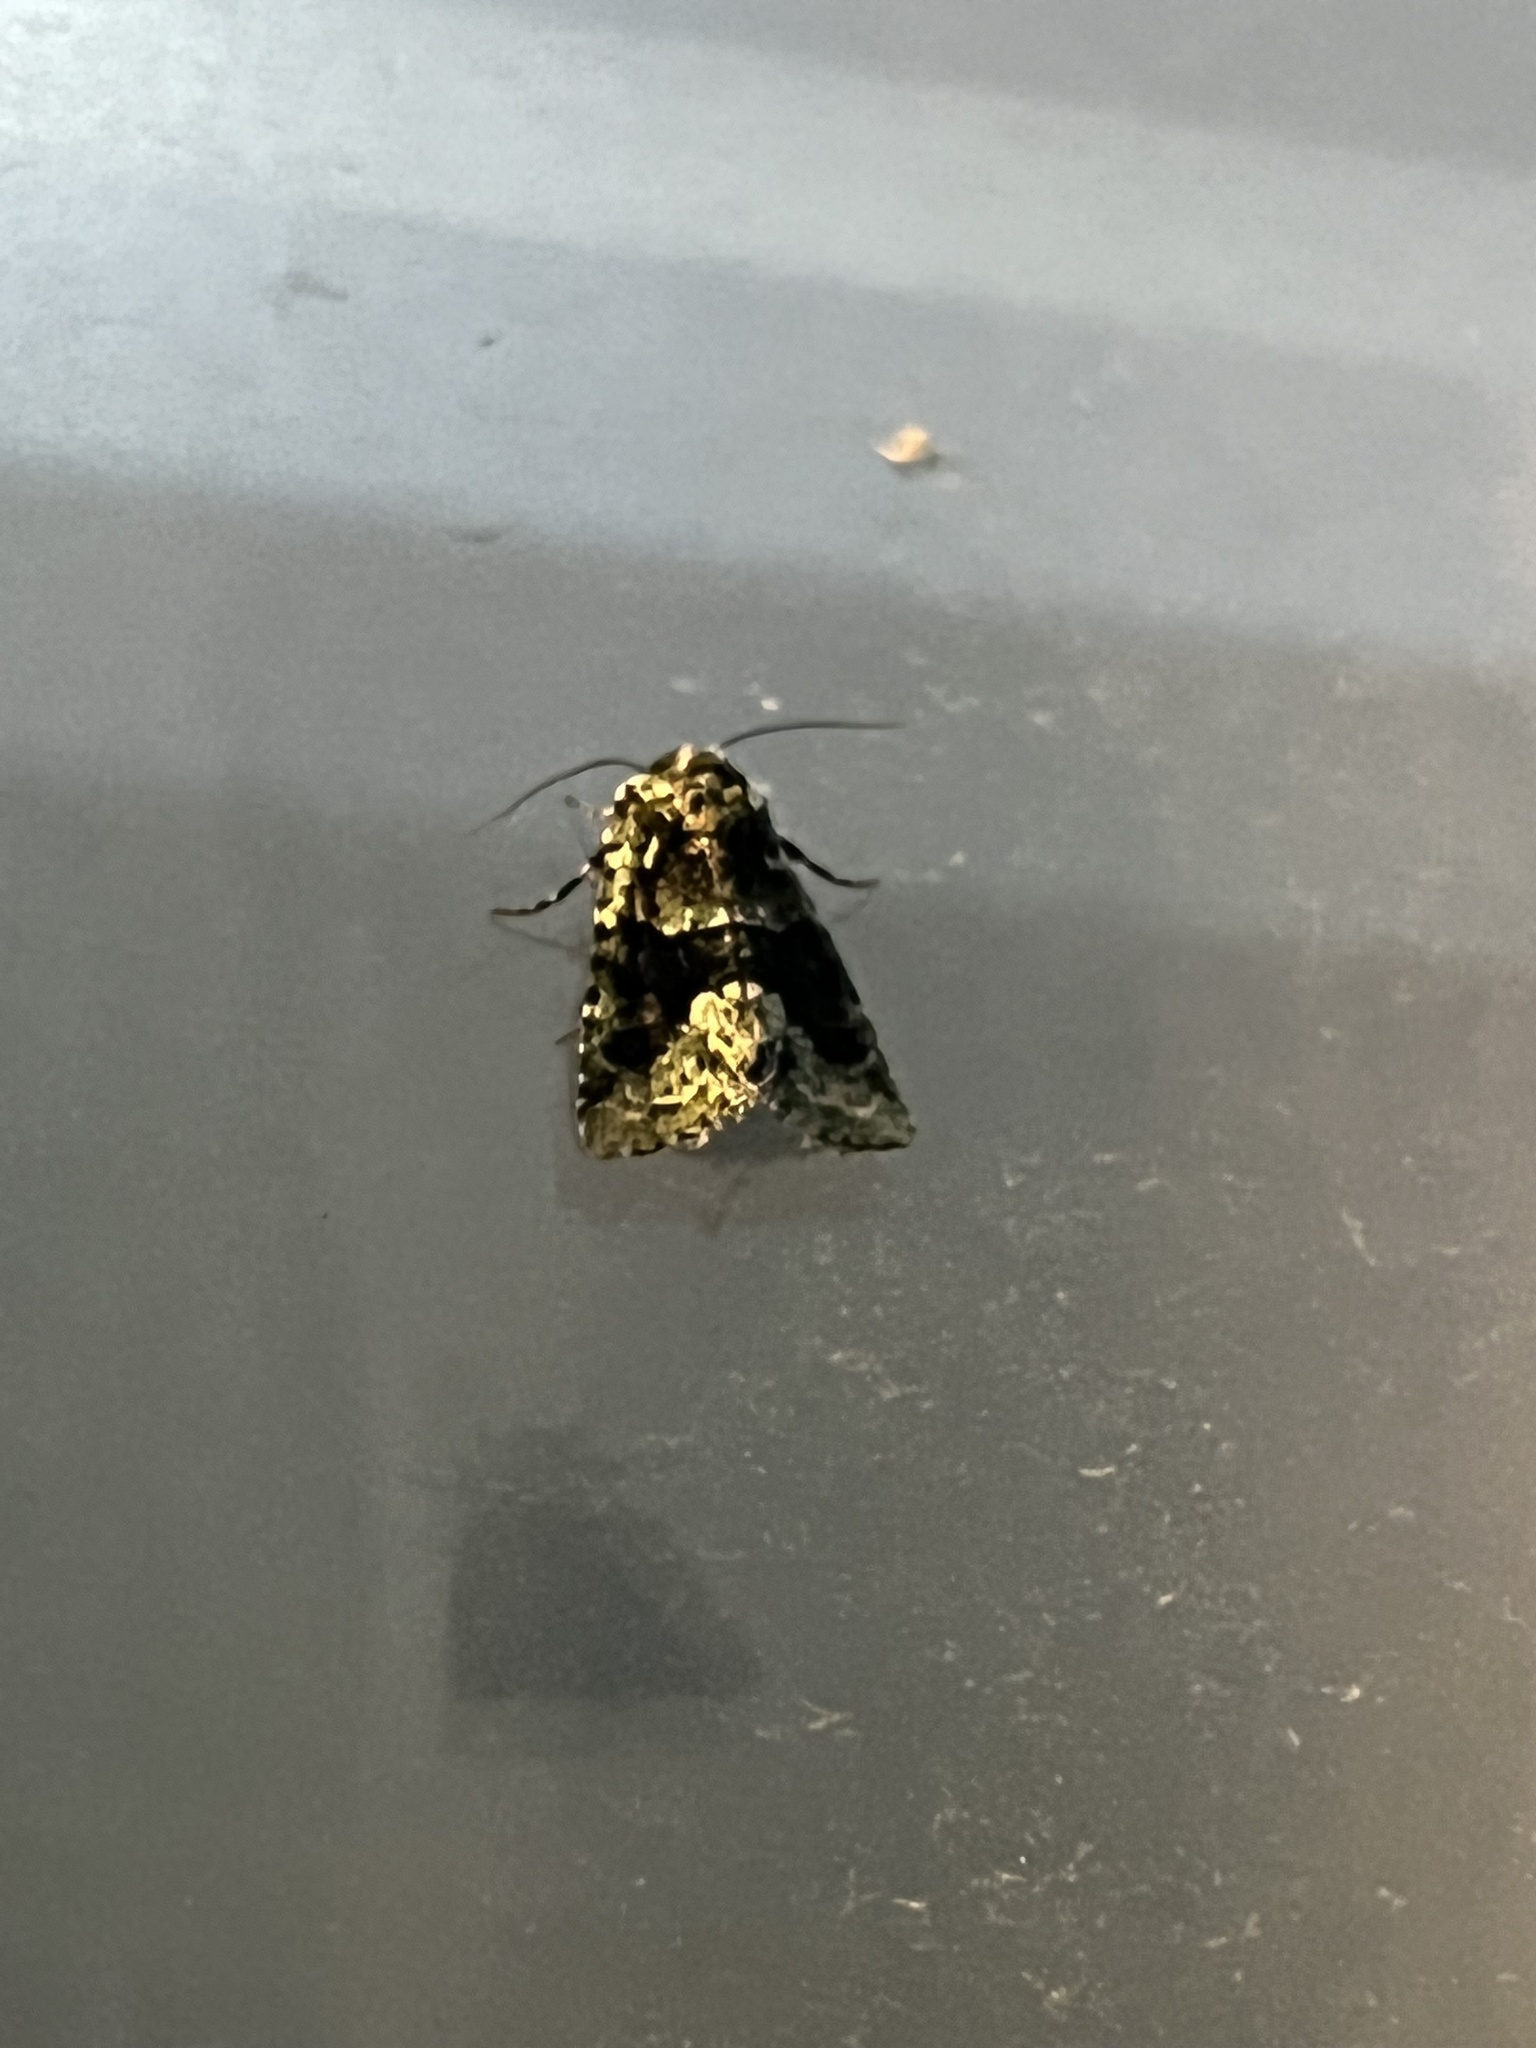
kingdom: Animalia
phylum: Arthropoda
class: Insecta
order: Lepidoptera
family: Noctuidae
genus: Lacinipolia
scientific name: Lacinipolia explicata
